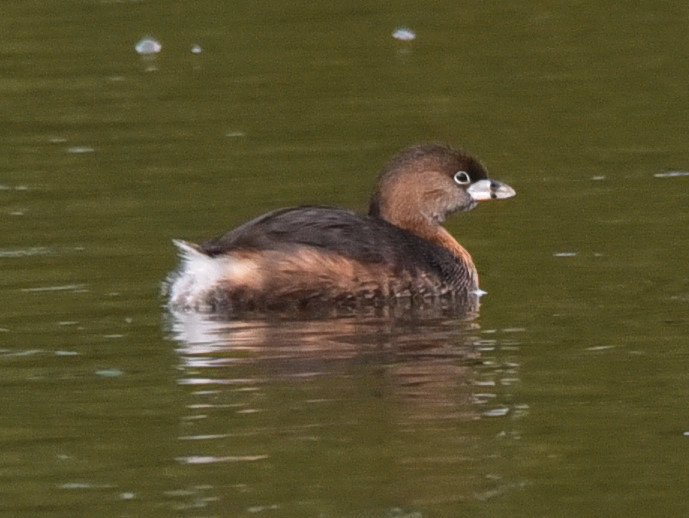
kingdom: Animalia
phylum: Chordata
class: Aves
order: Podicipediformes
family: Podicipedidae
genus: Podilymbus
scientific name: Podilymbus podiceps
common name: Pied-billed grebe
